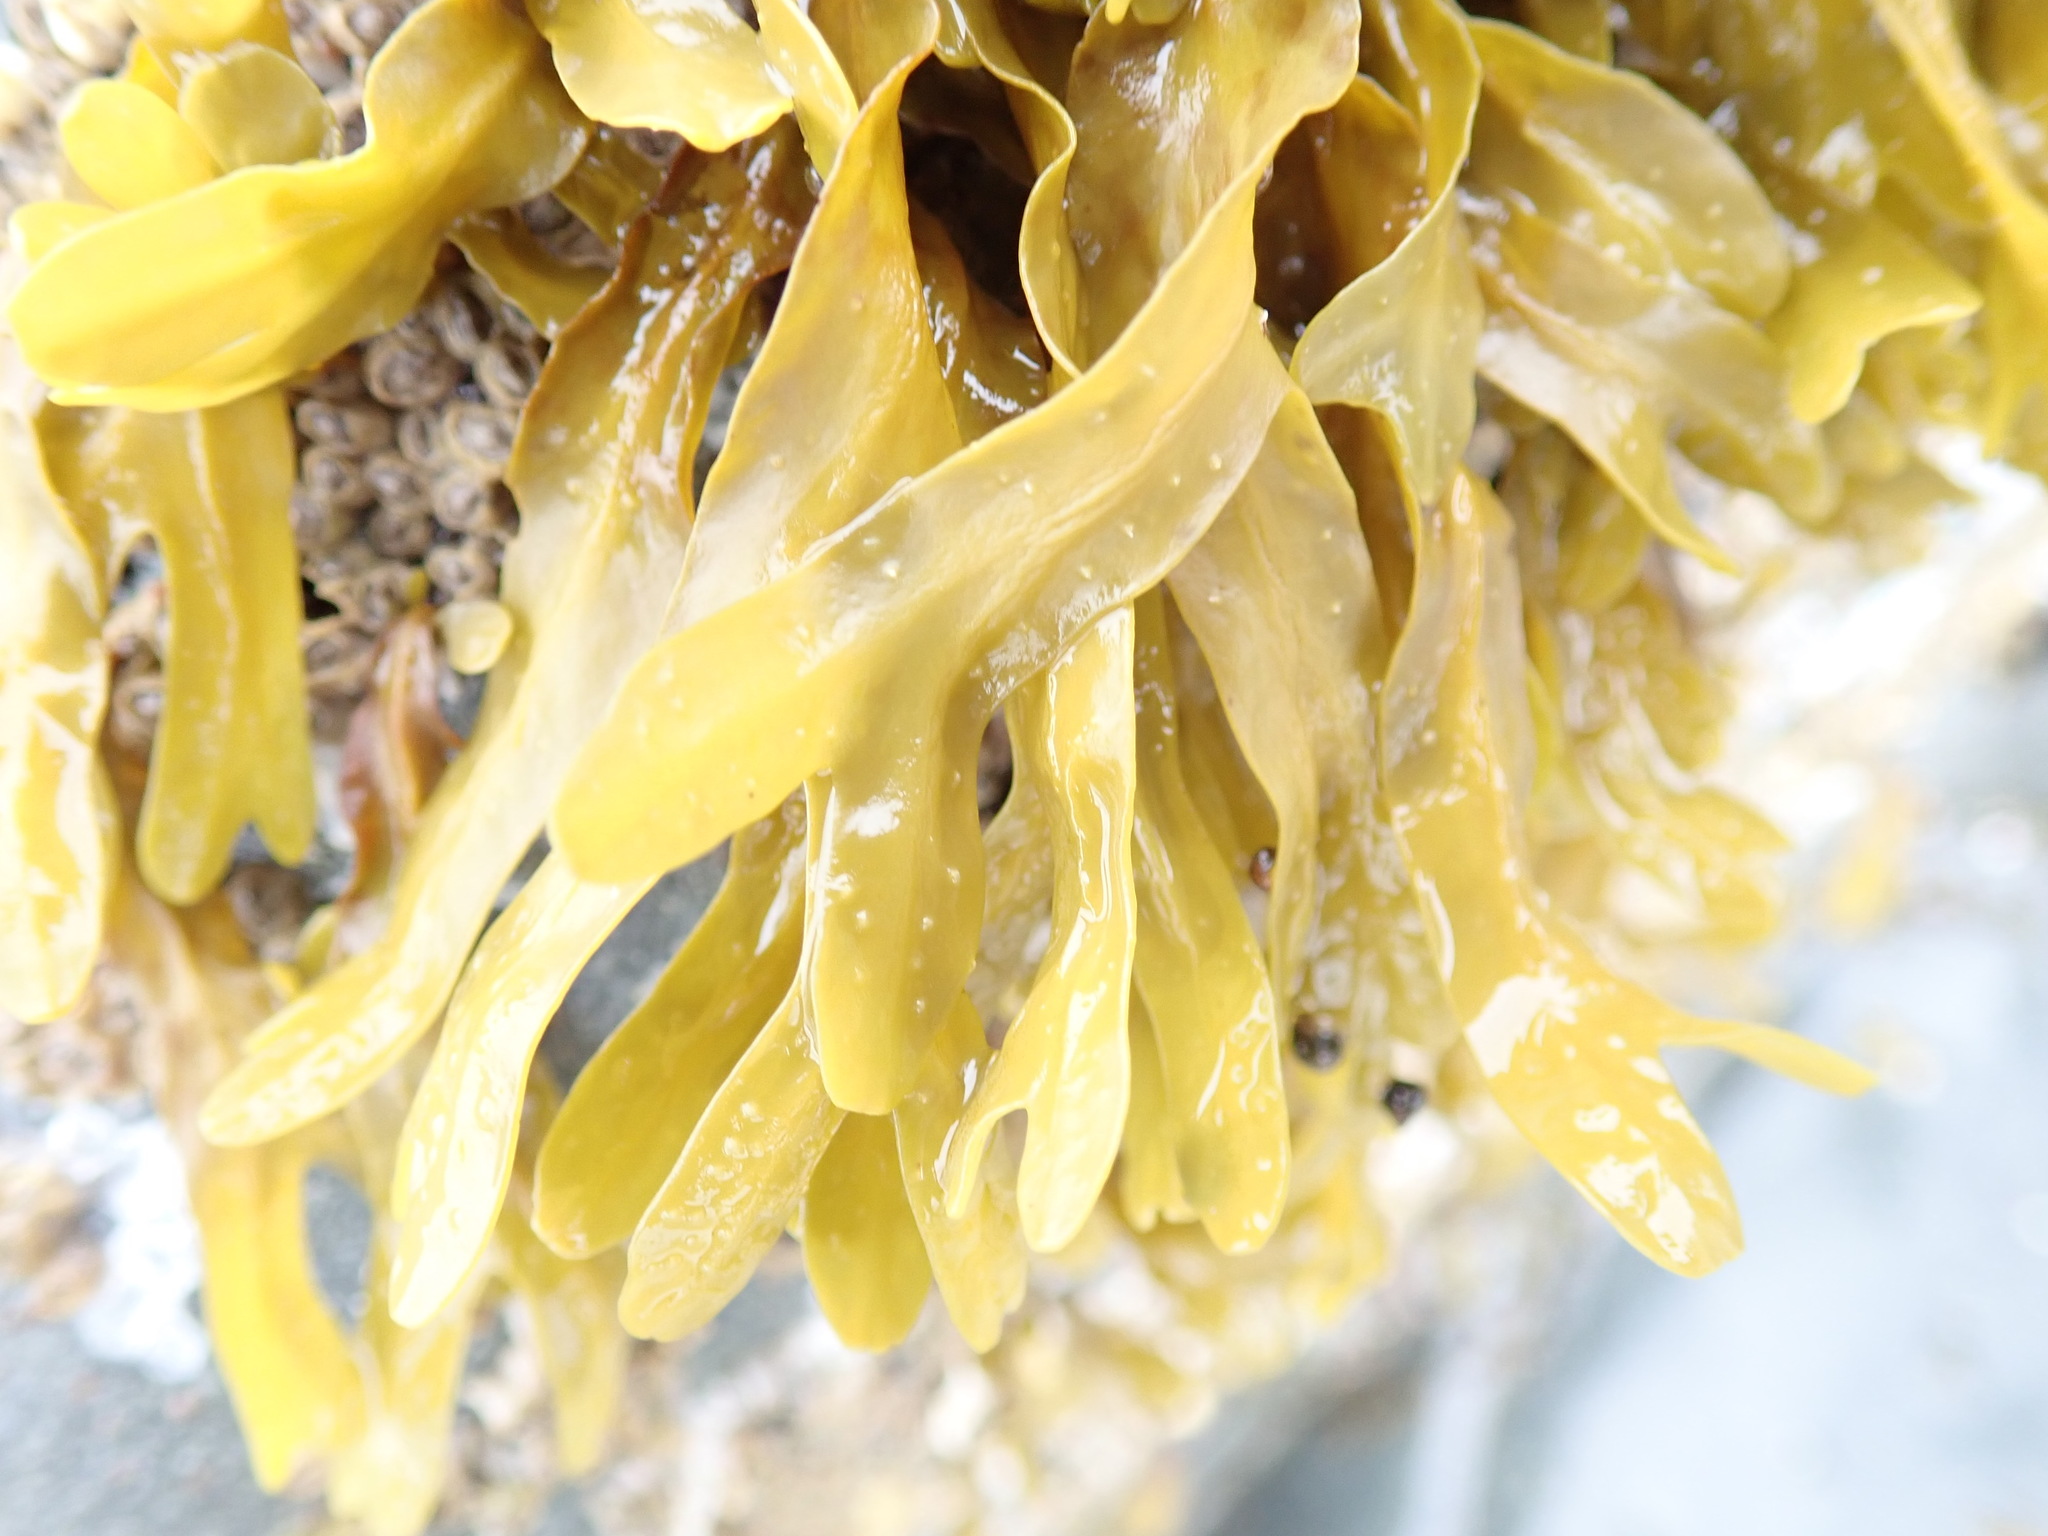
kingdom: Chromista
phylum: Ochrophyta
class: Phaeophyceae
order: Fucales
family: Fucaceae
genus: Fucus
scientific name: Fucus distichus
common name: Rockweed
